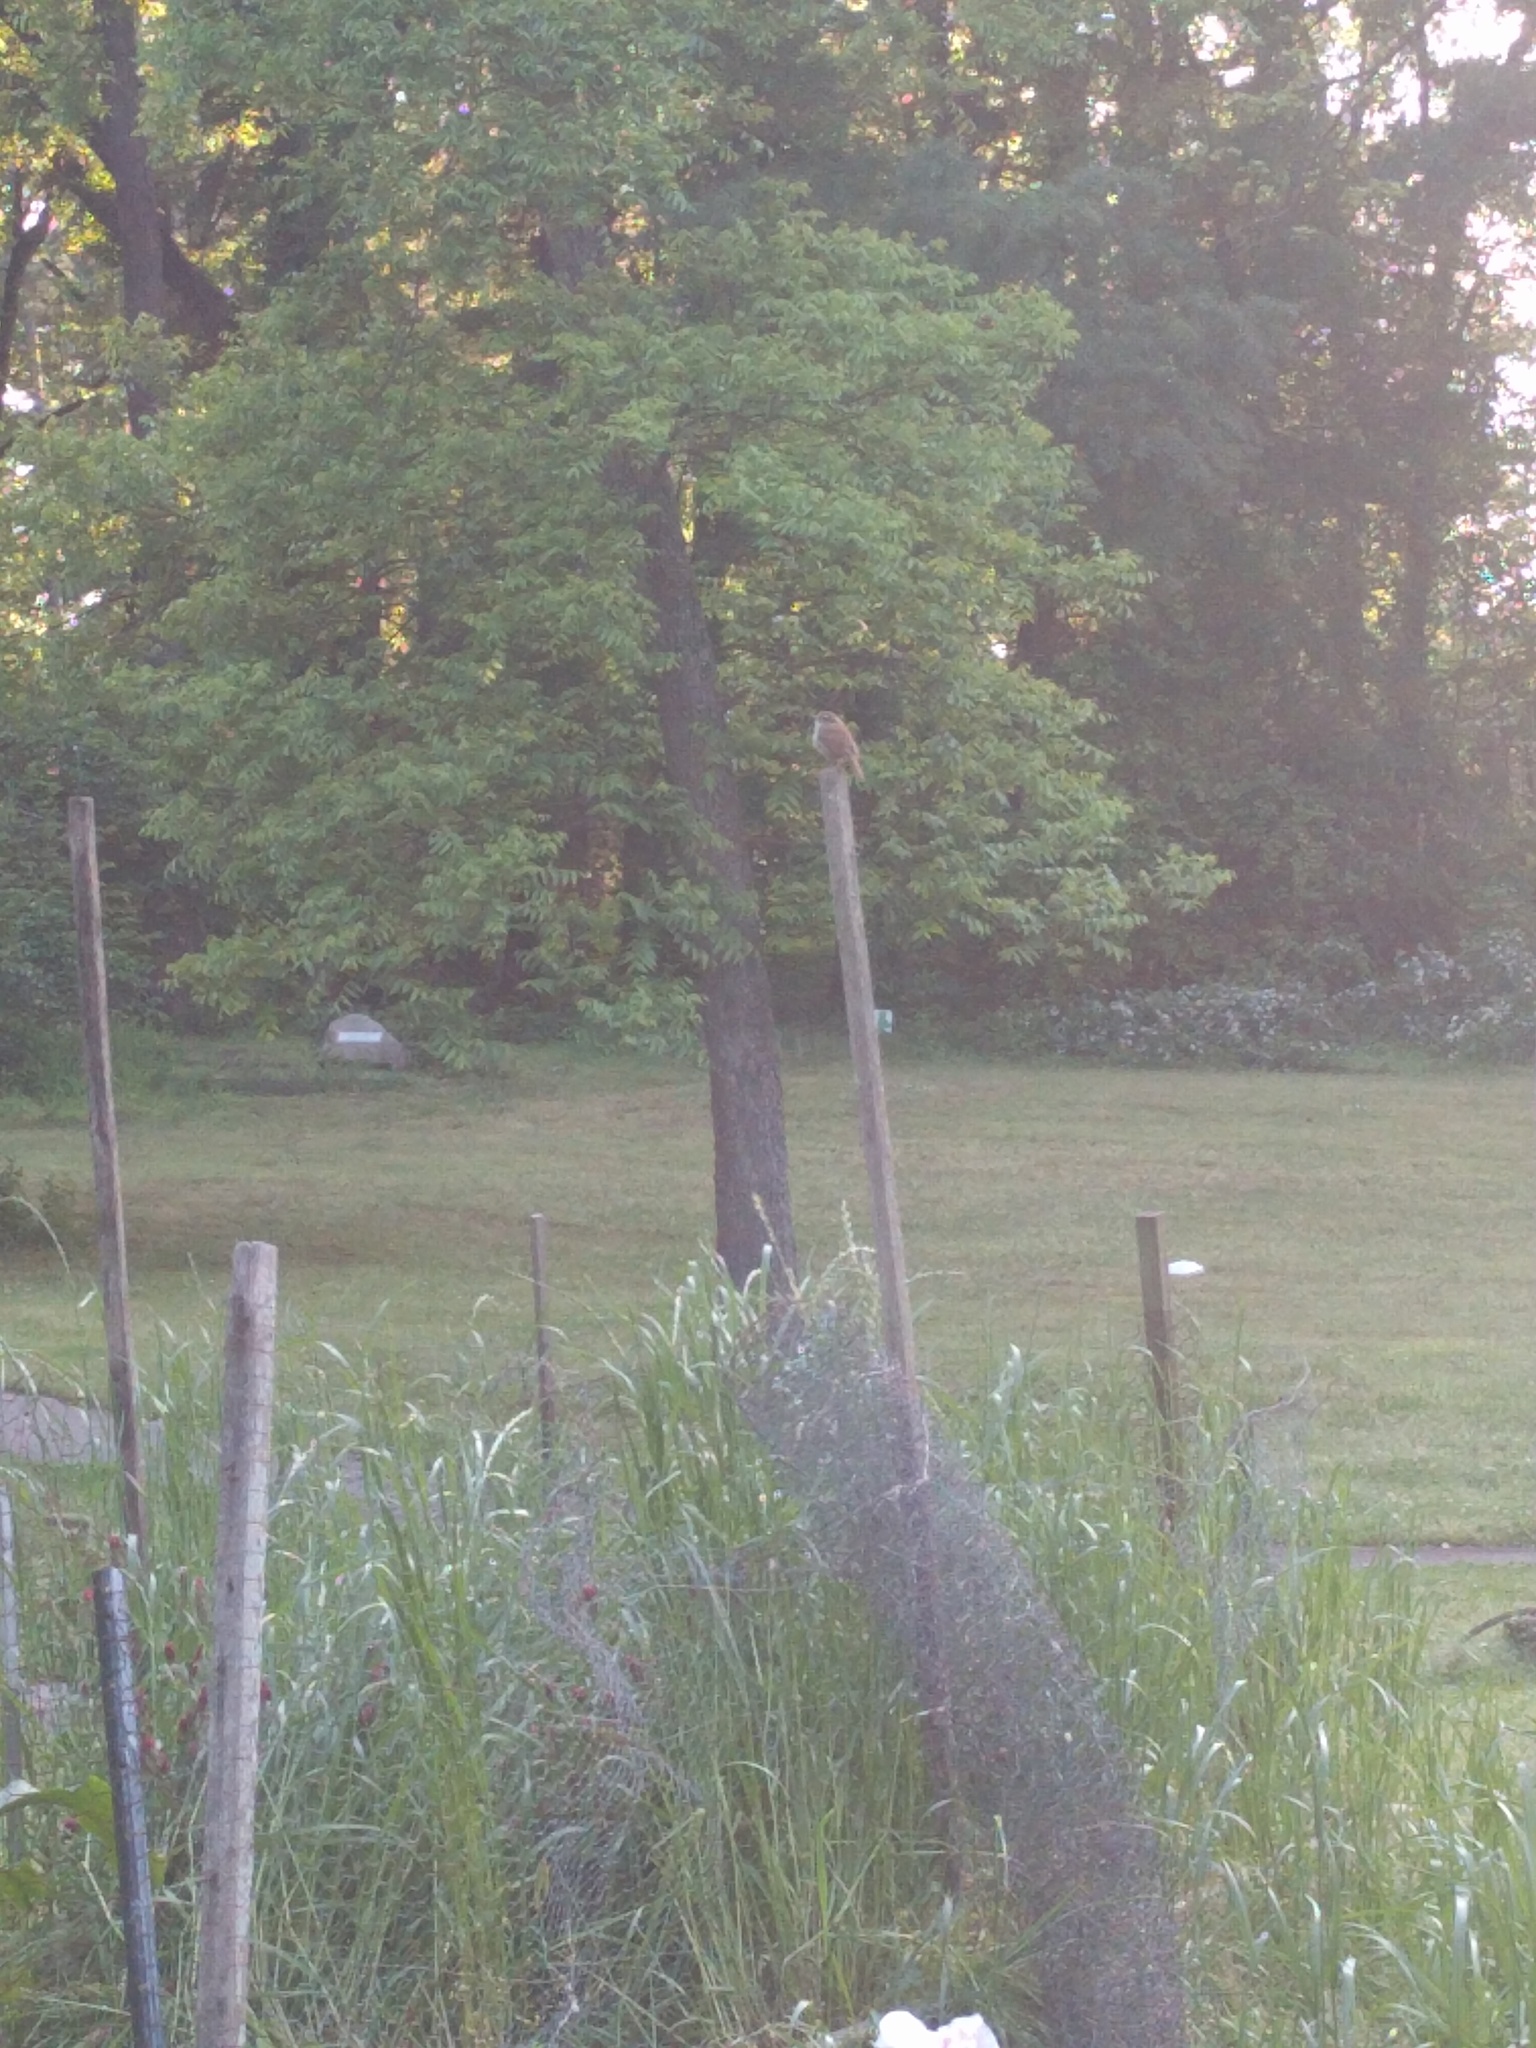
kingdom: Animalia
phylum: Chordata
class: Aves
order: Passeriformes
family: Troglodytidae
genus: Troglodytes
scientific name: Troglodytes aedon
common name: House wren
